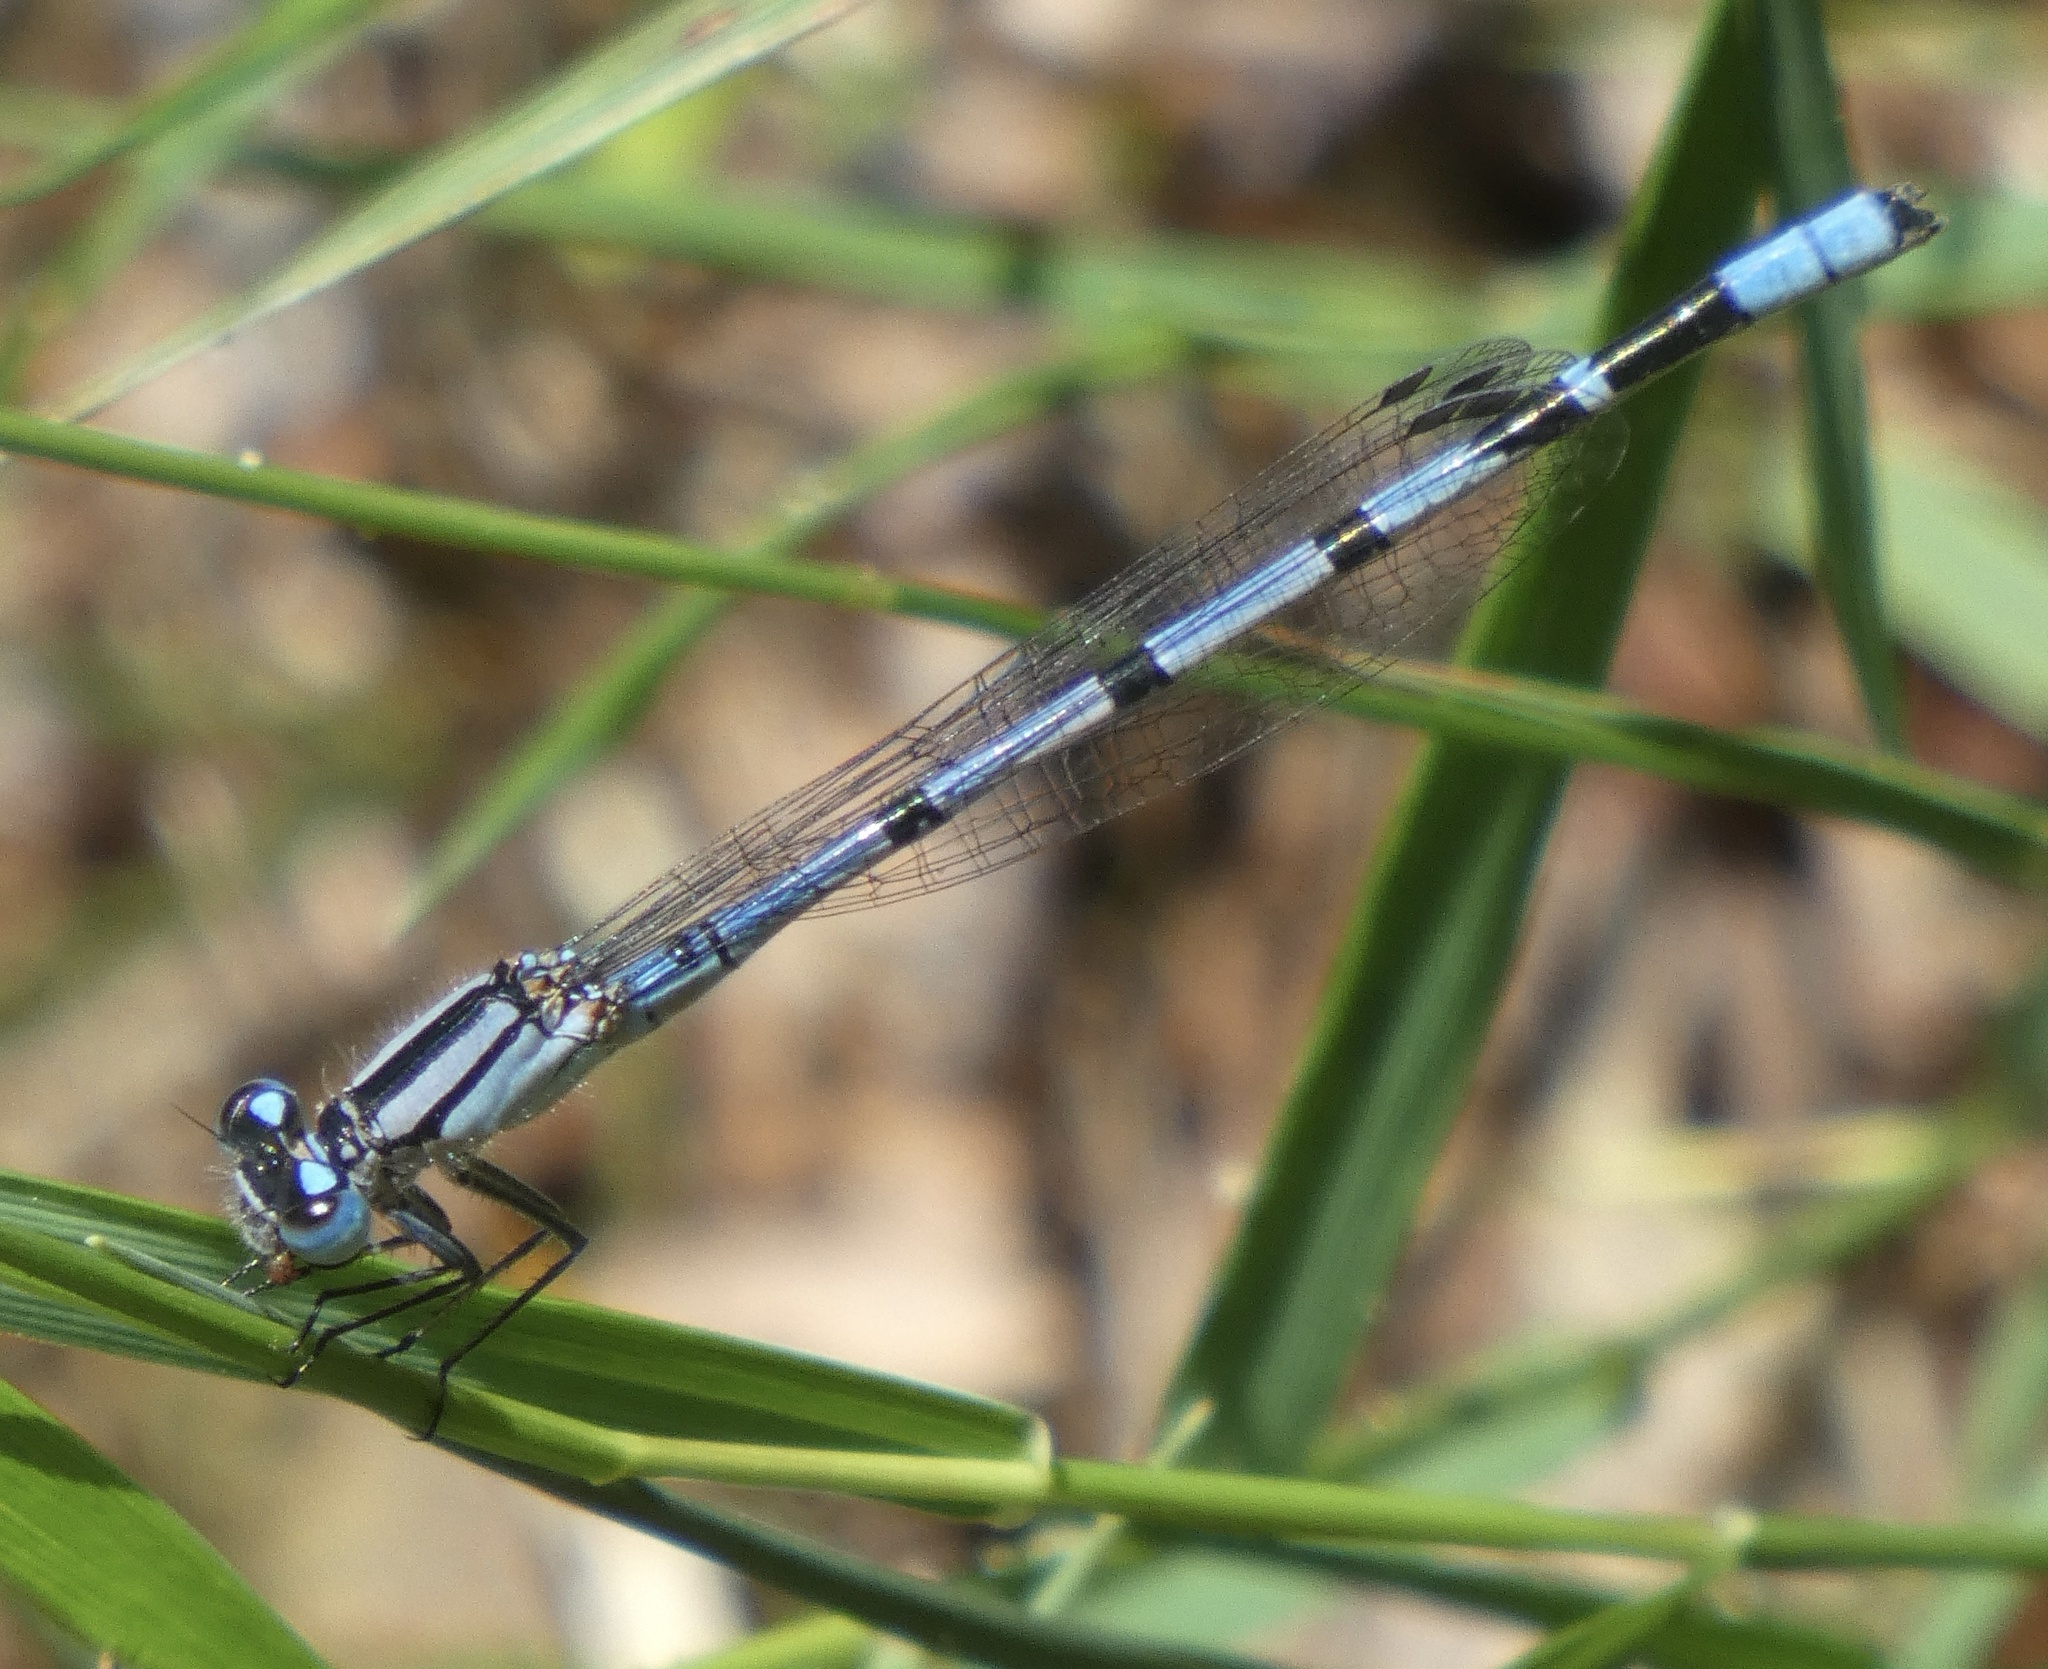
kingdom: Animalia
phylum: Arthropoda
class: Insecta
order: Odonata
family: Coenagrionidae
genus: Enallagma
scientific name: Enallagma cyathigerum
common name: Common blue damselfly
